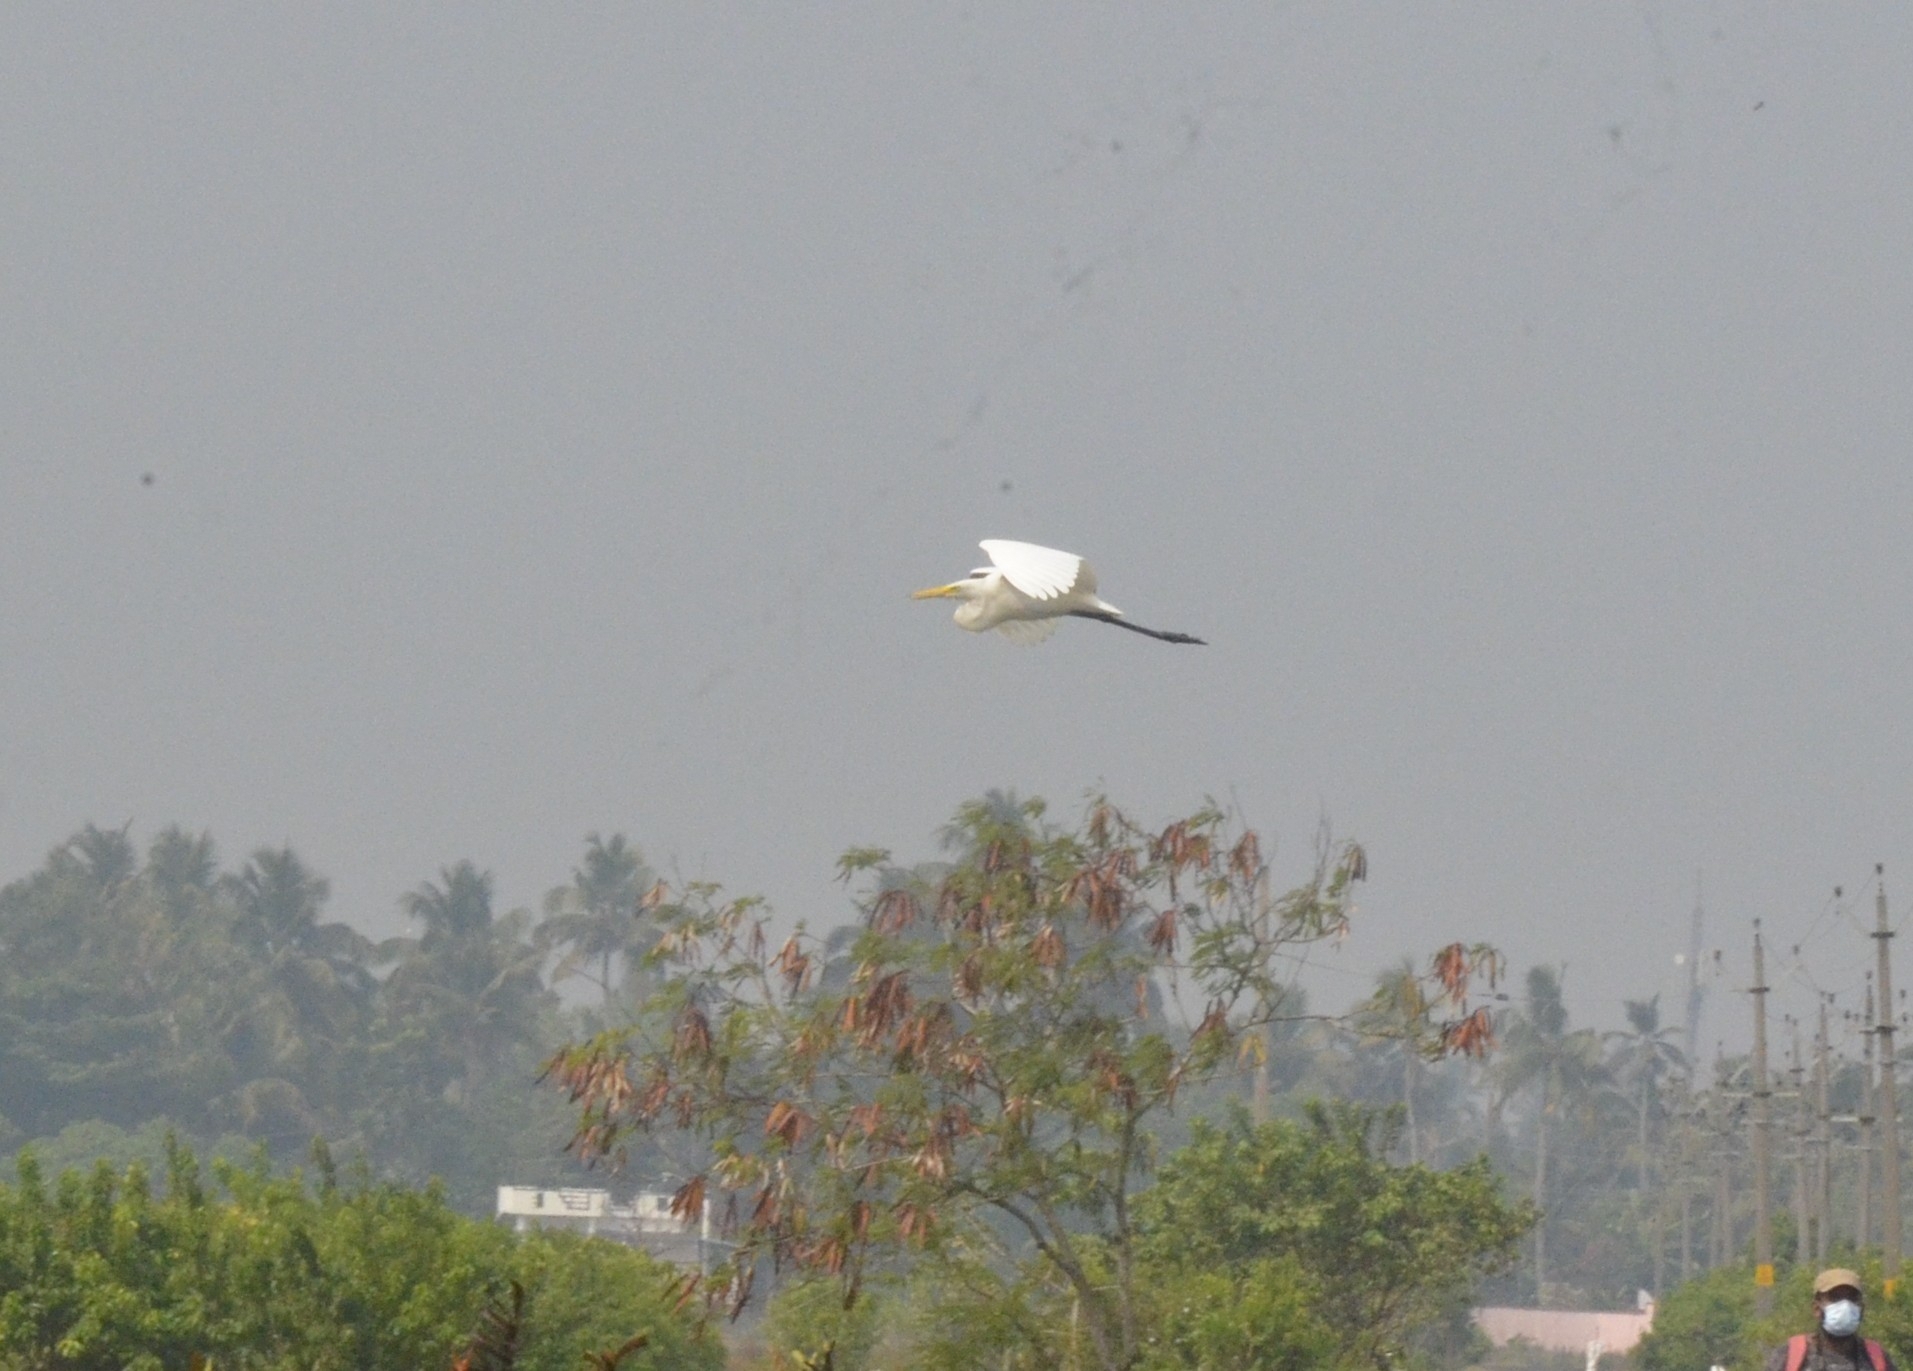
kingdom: Animalia
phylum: Chordata
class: Aves
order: Pelecaniformes
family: Ardeidae
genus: Ardea
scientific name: Ardea alba
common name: Great egret
